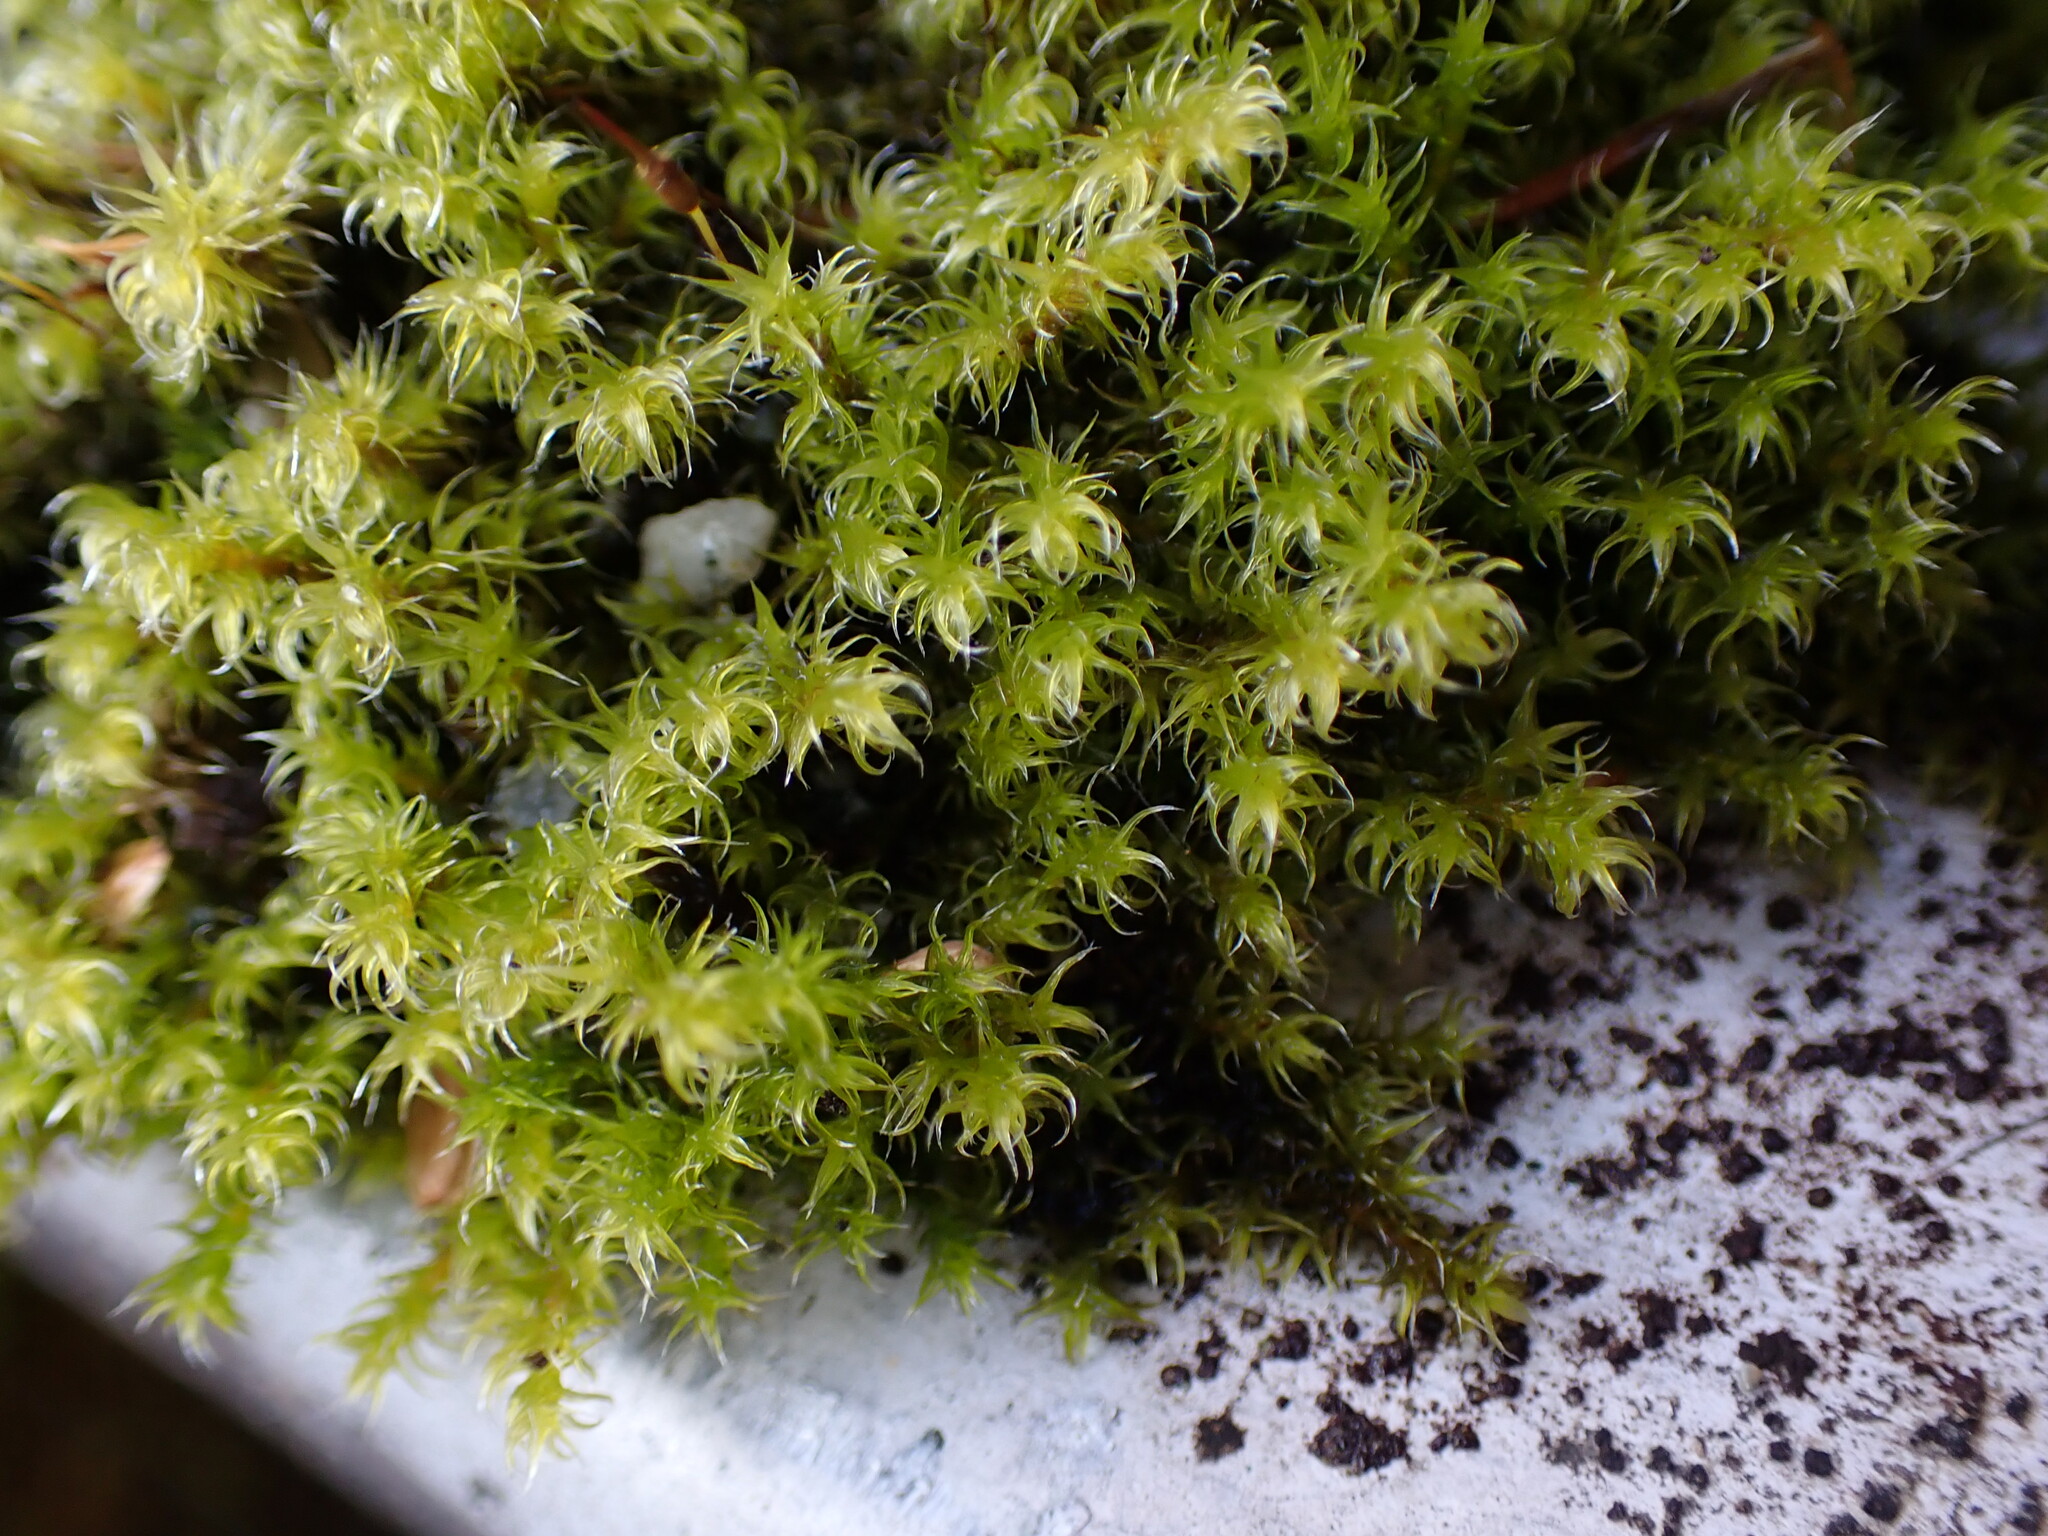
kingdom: Plantae
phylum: Bryophyta
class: Bryopsida
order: Grimmiales
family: Grimmiaceae
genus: Niphotrichum
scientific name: Niphotrichum elongatum
